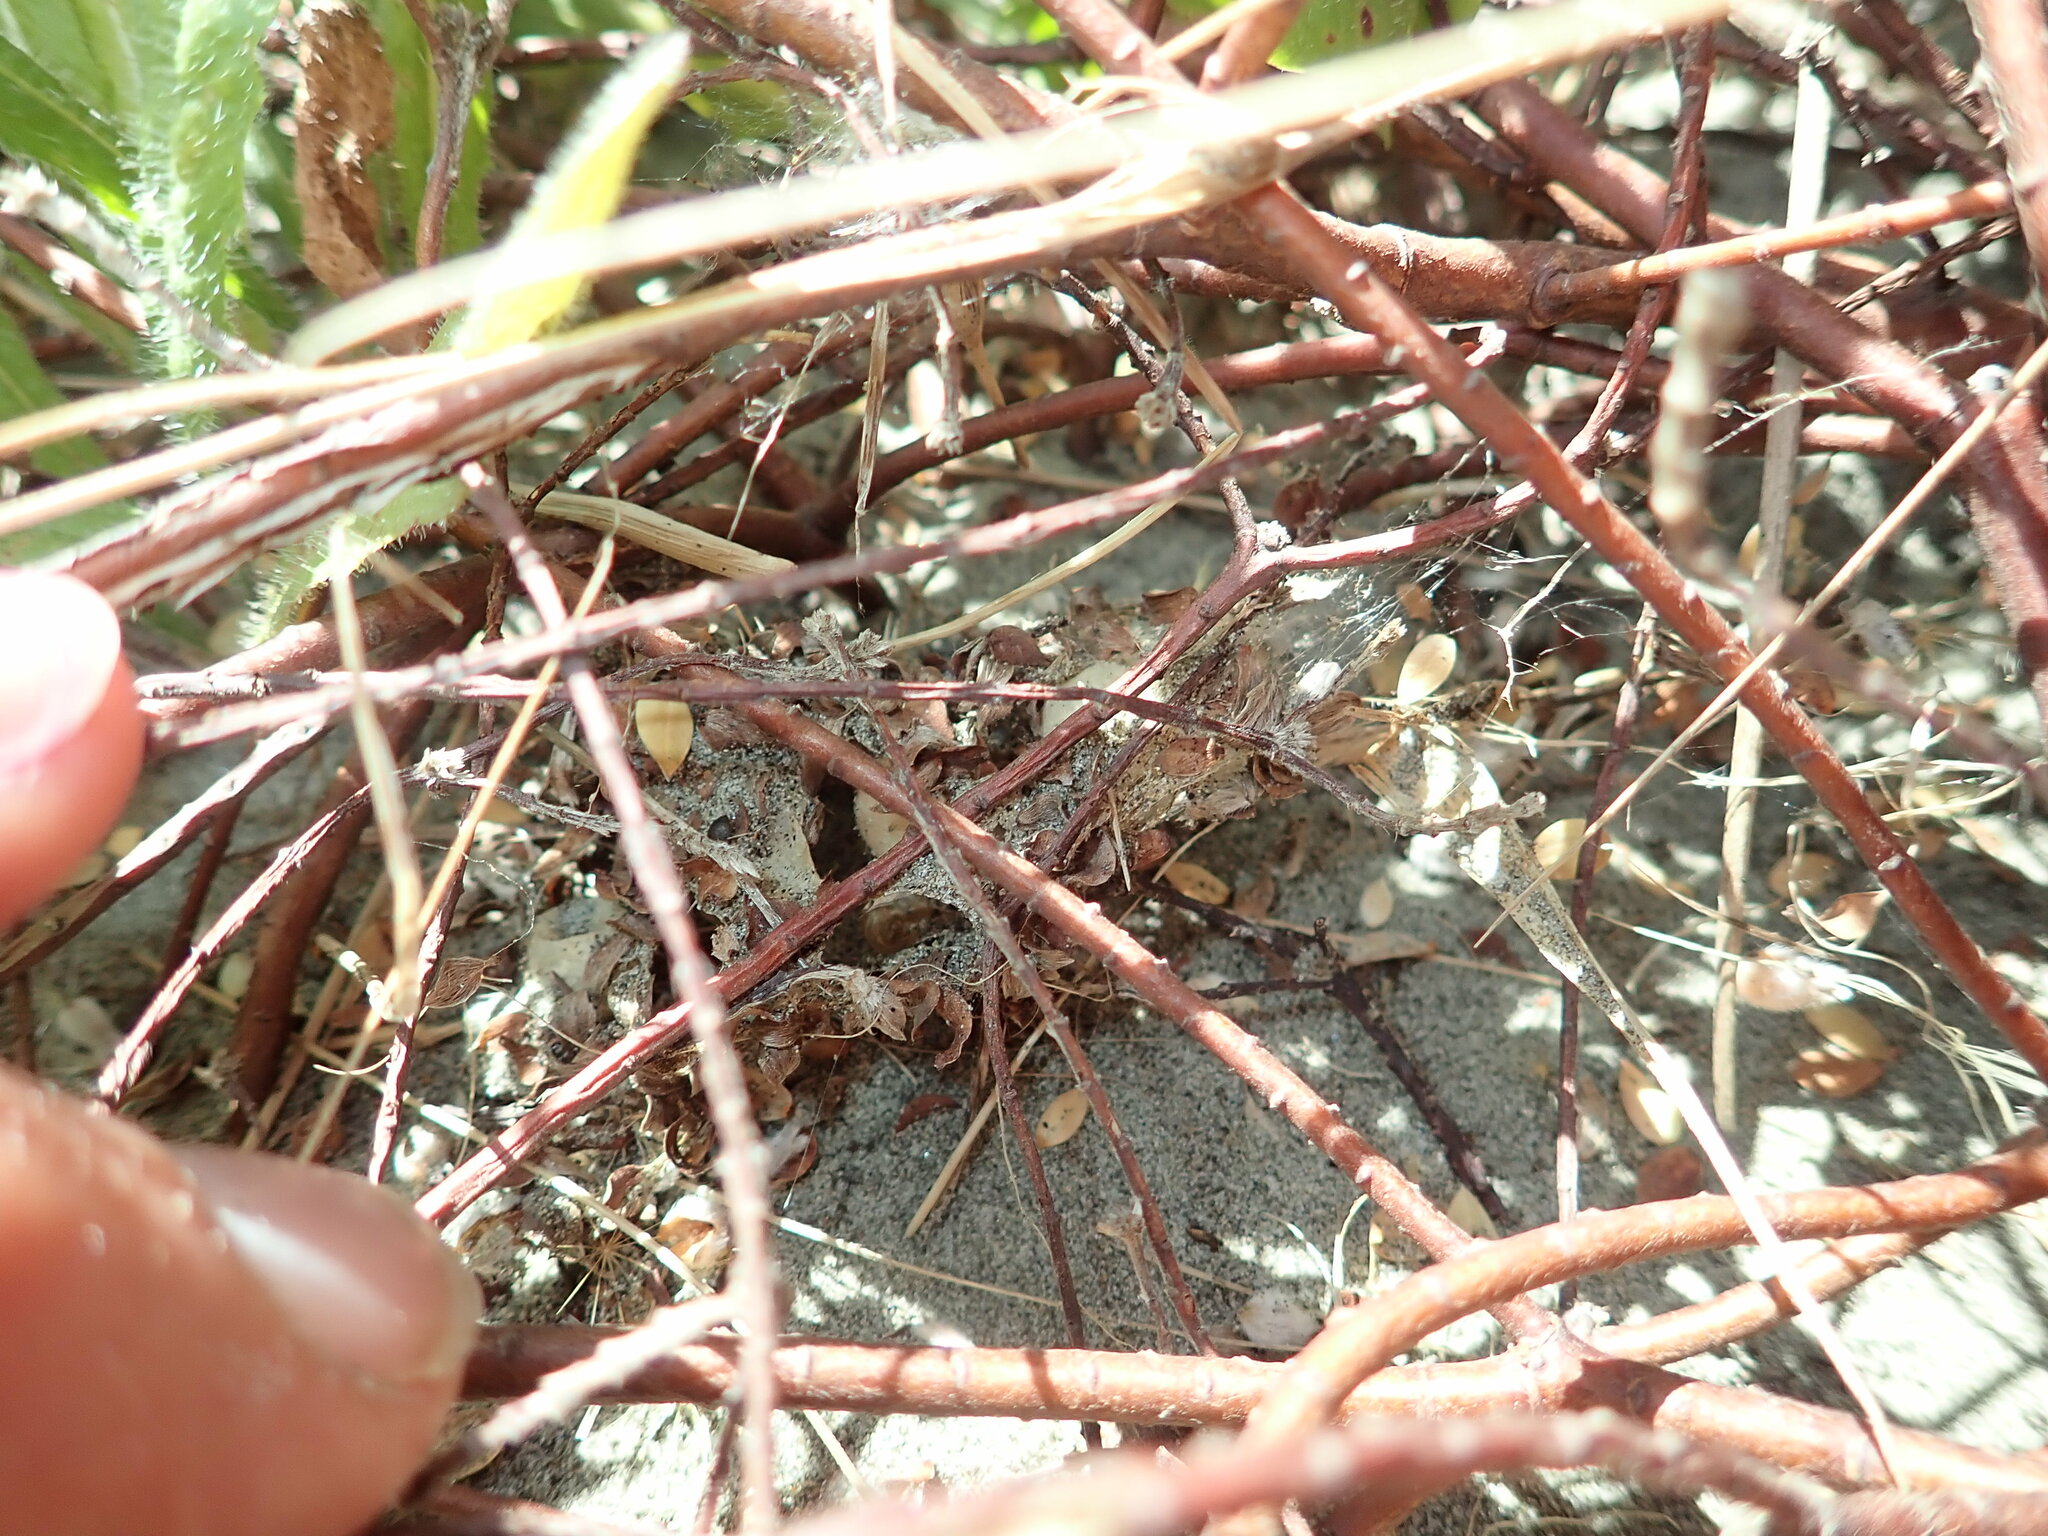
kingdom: Animalia
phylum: Arthropoda
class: Arachnida
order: Araneae
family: Theridiidae
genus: Latrodectus
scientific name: Latrodectus katipo
